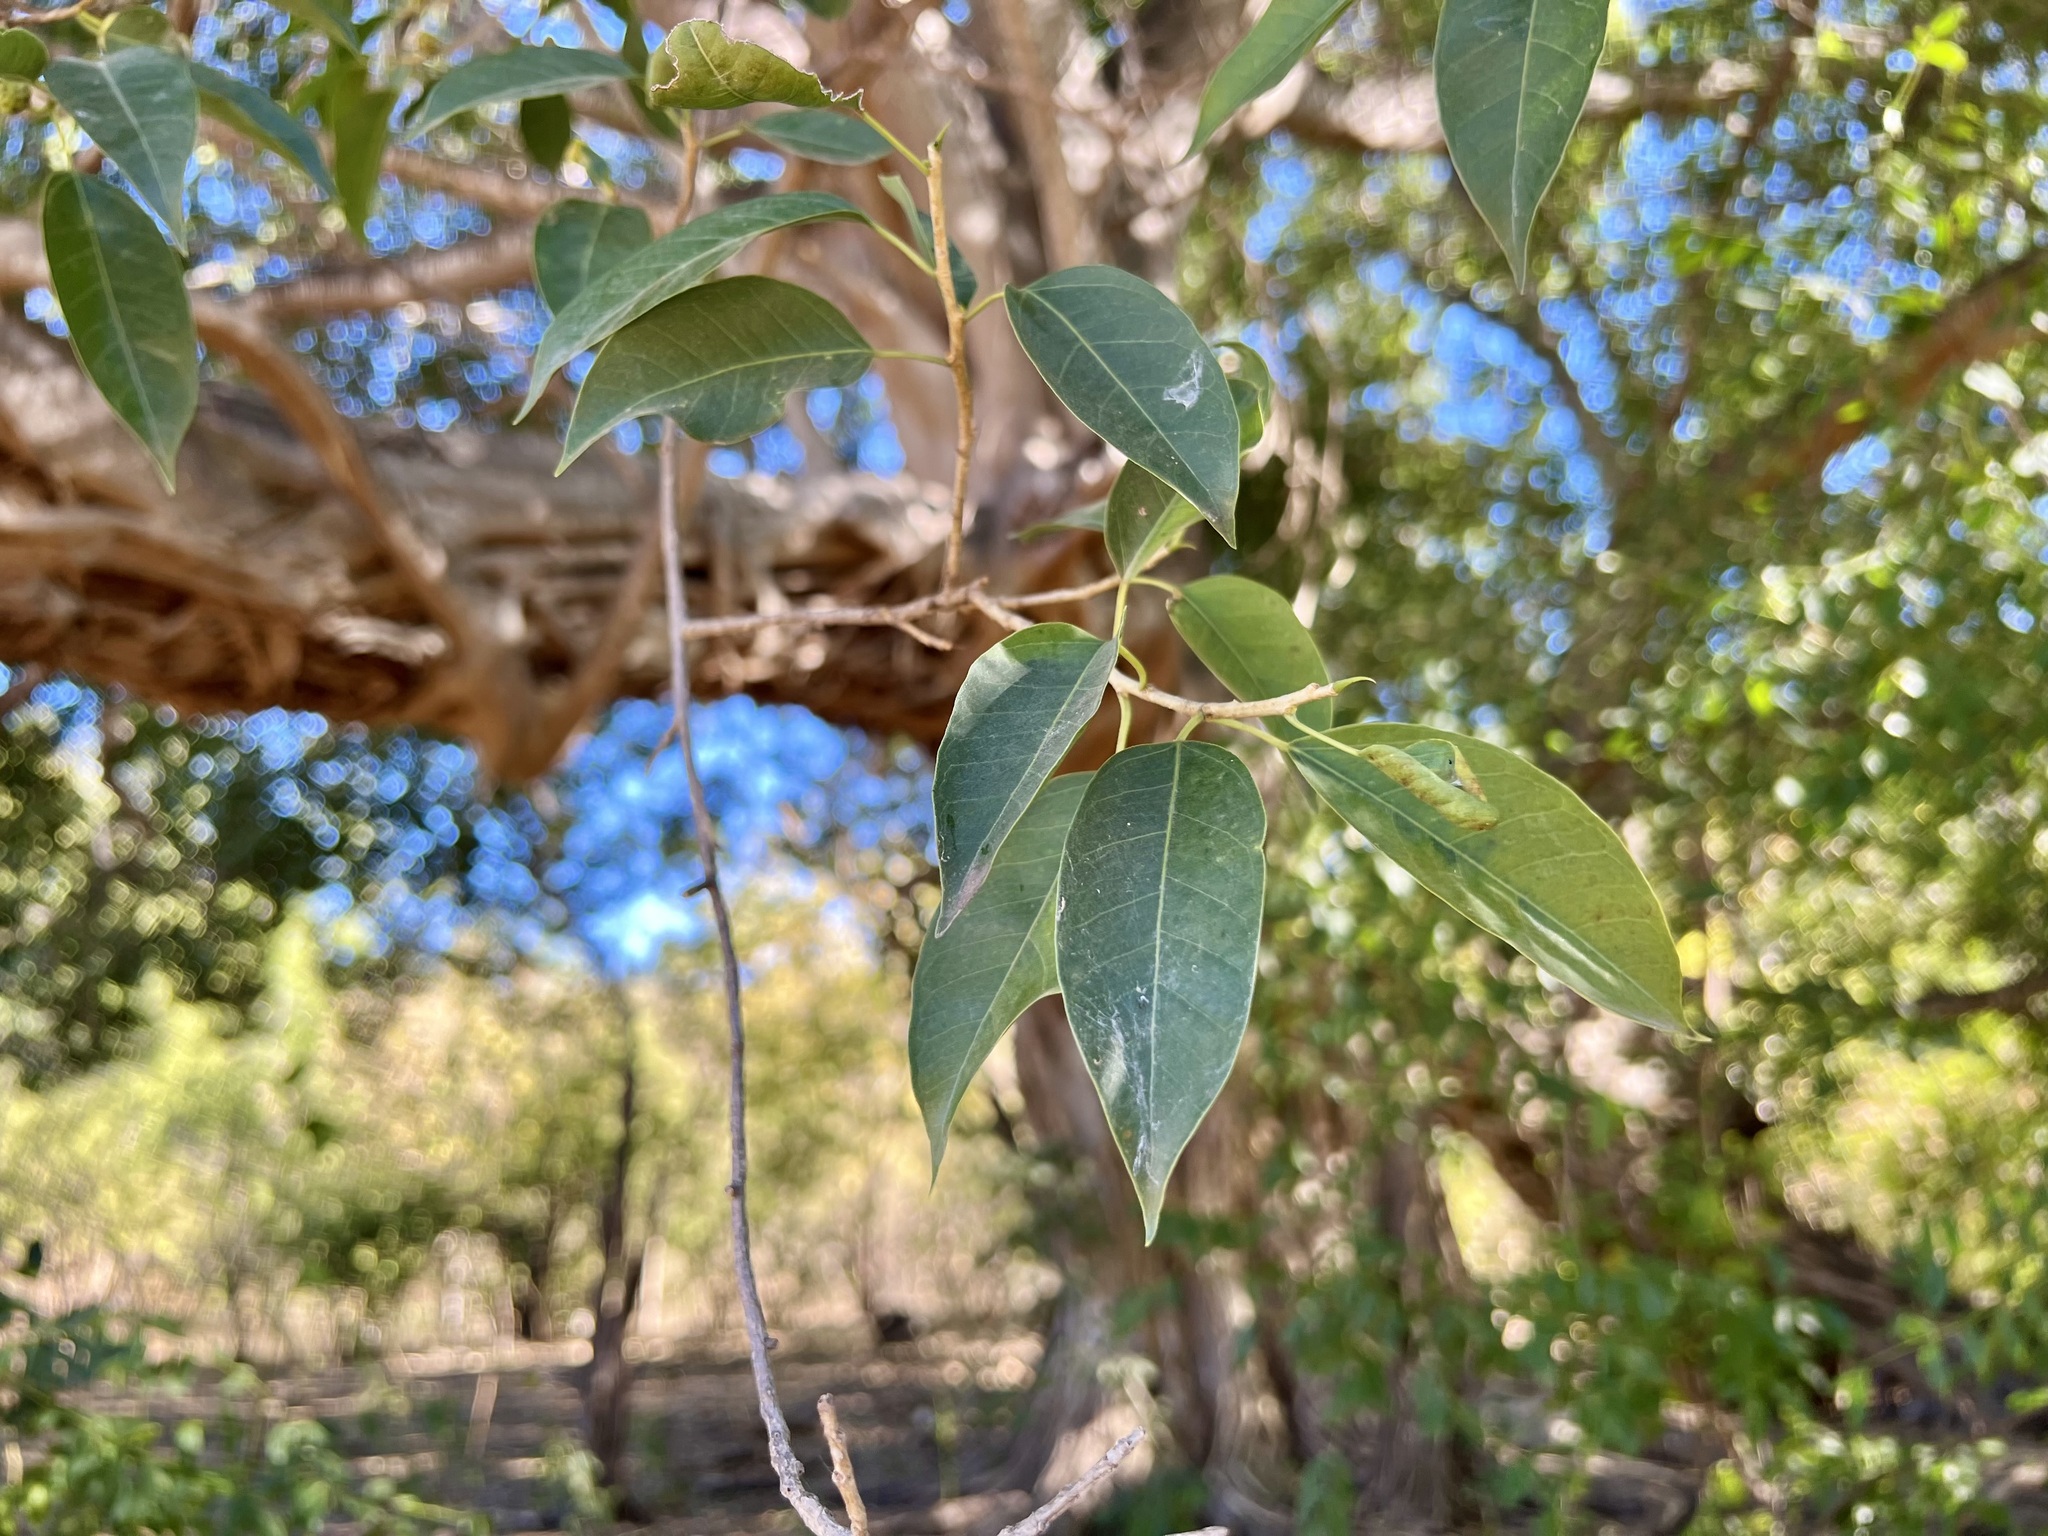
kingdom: Plantae
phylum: Tracheophyta
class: Magnoliopsida
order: Rosales
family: Moraceae
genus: Ficus
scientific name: Ficus pertusa
